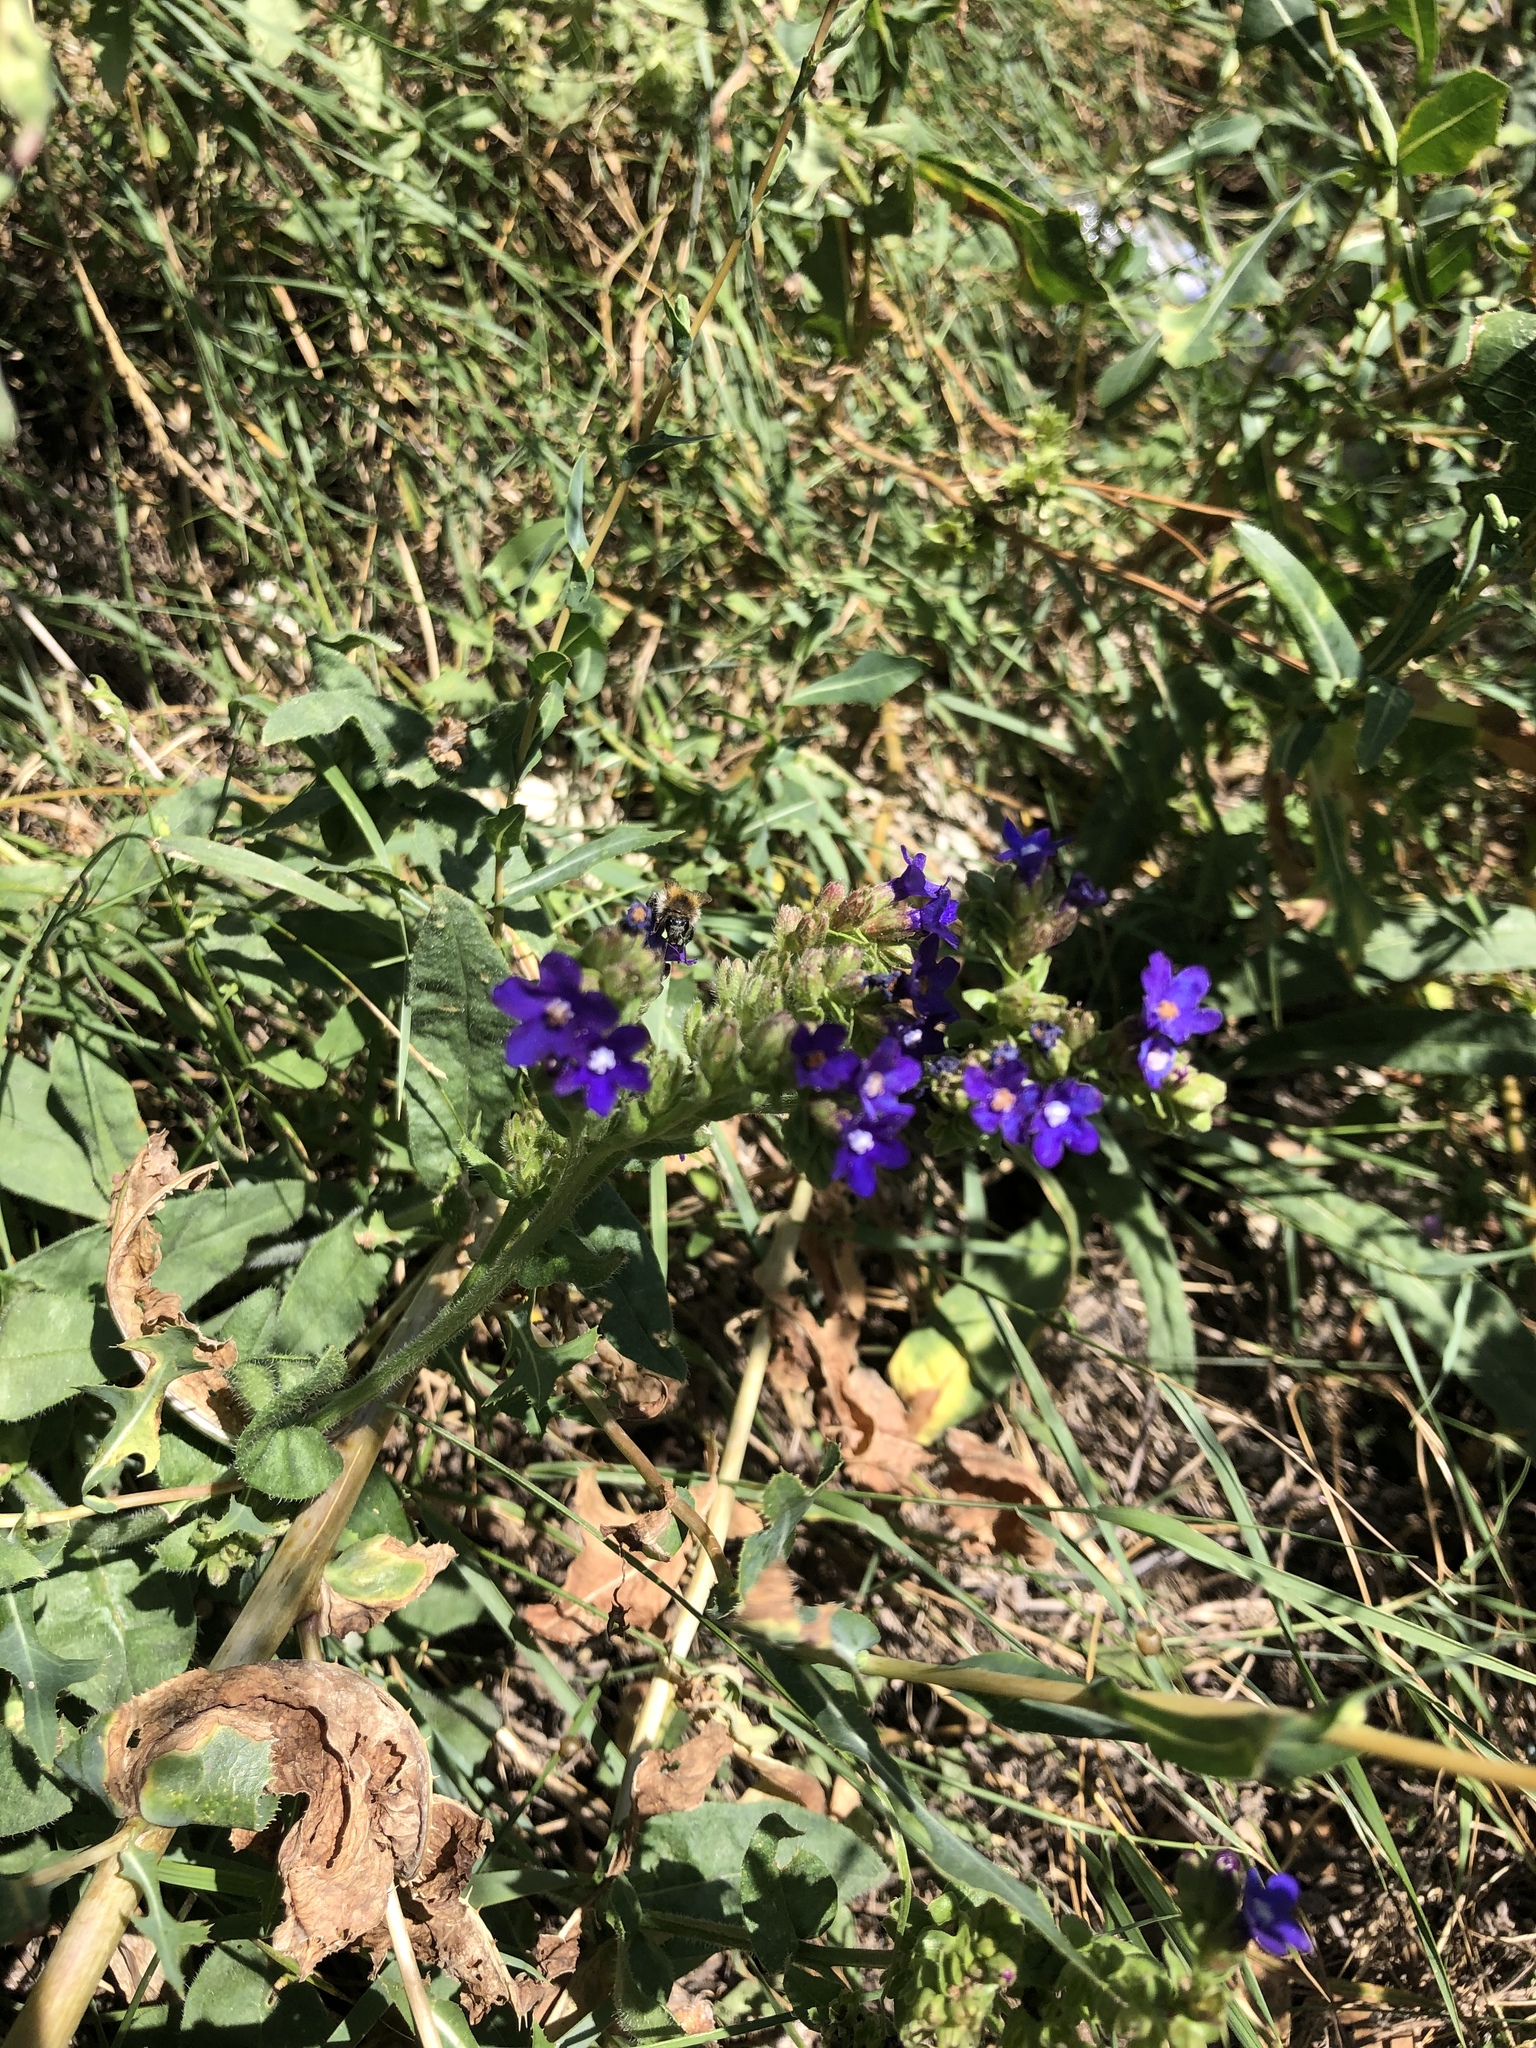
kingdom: Plantae
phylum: Tracheophyta
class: Magnoliopsida
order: Boraginales
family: Boraginaceae
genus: Anchusa
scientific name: Anchusa officinalis
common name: Alkanet
